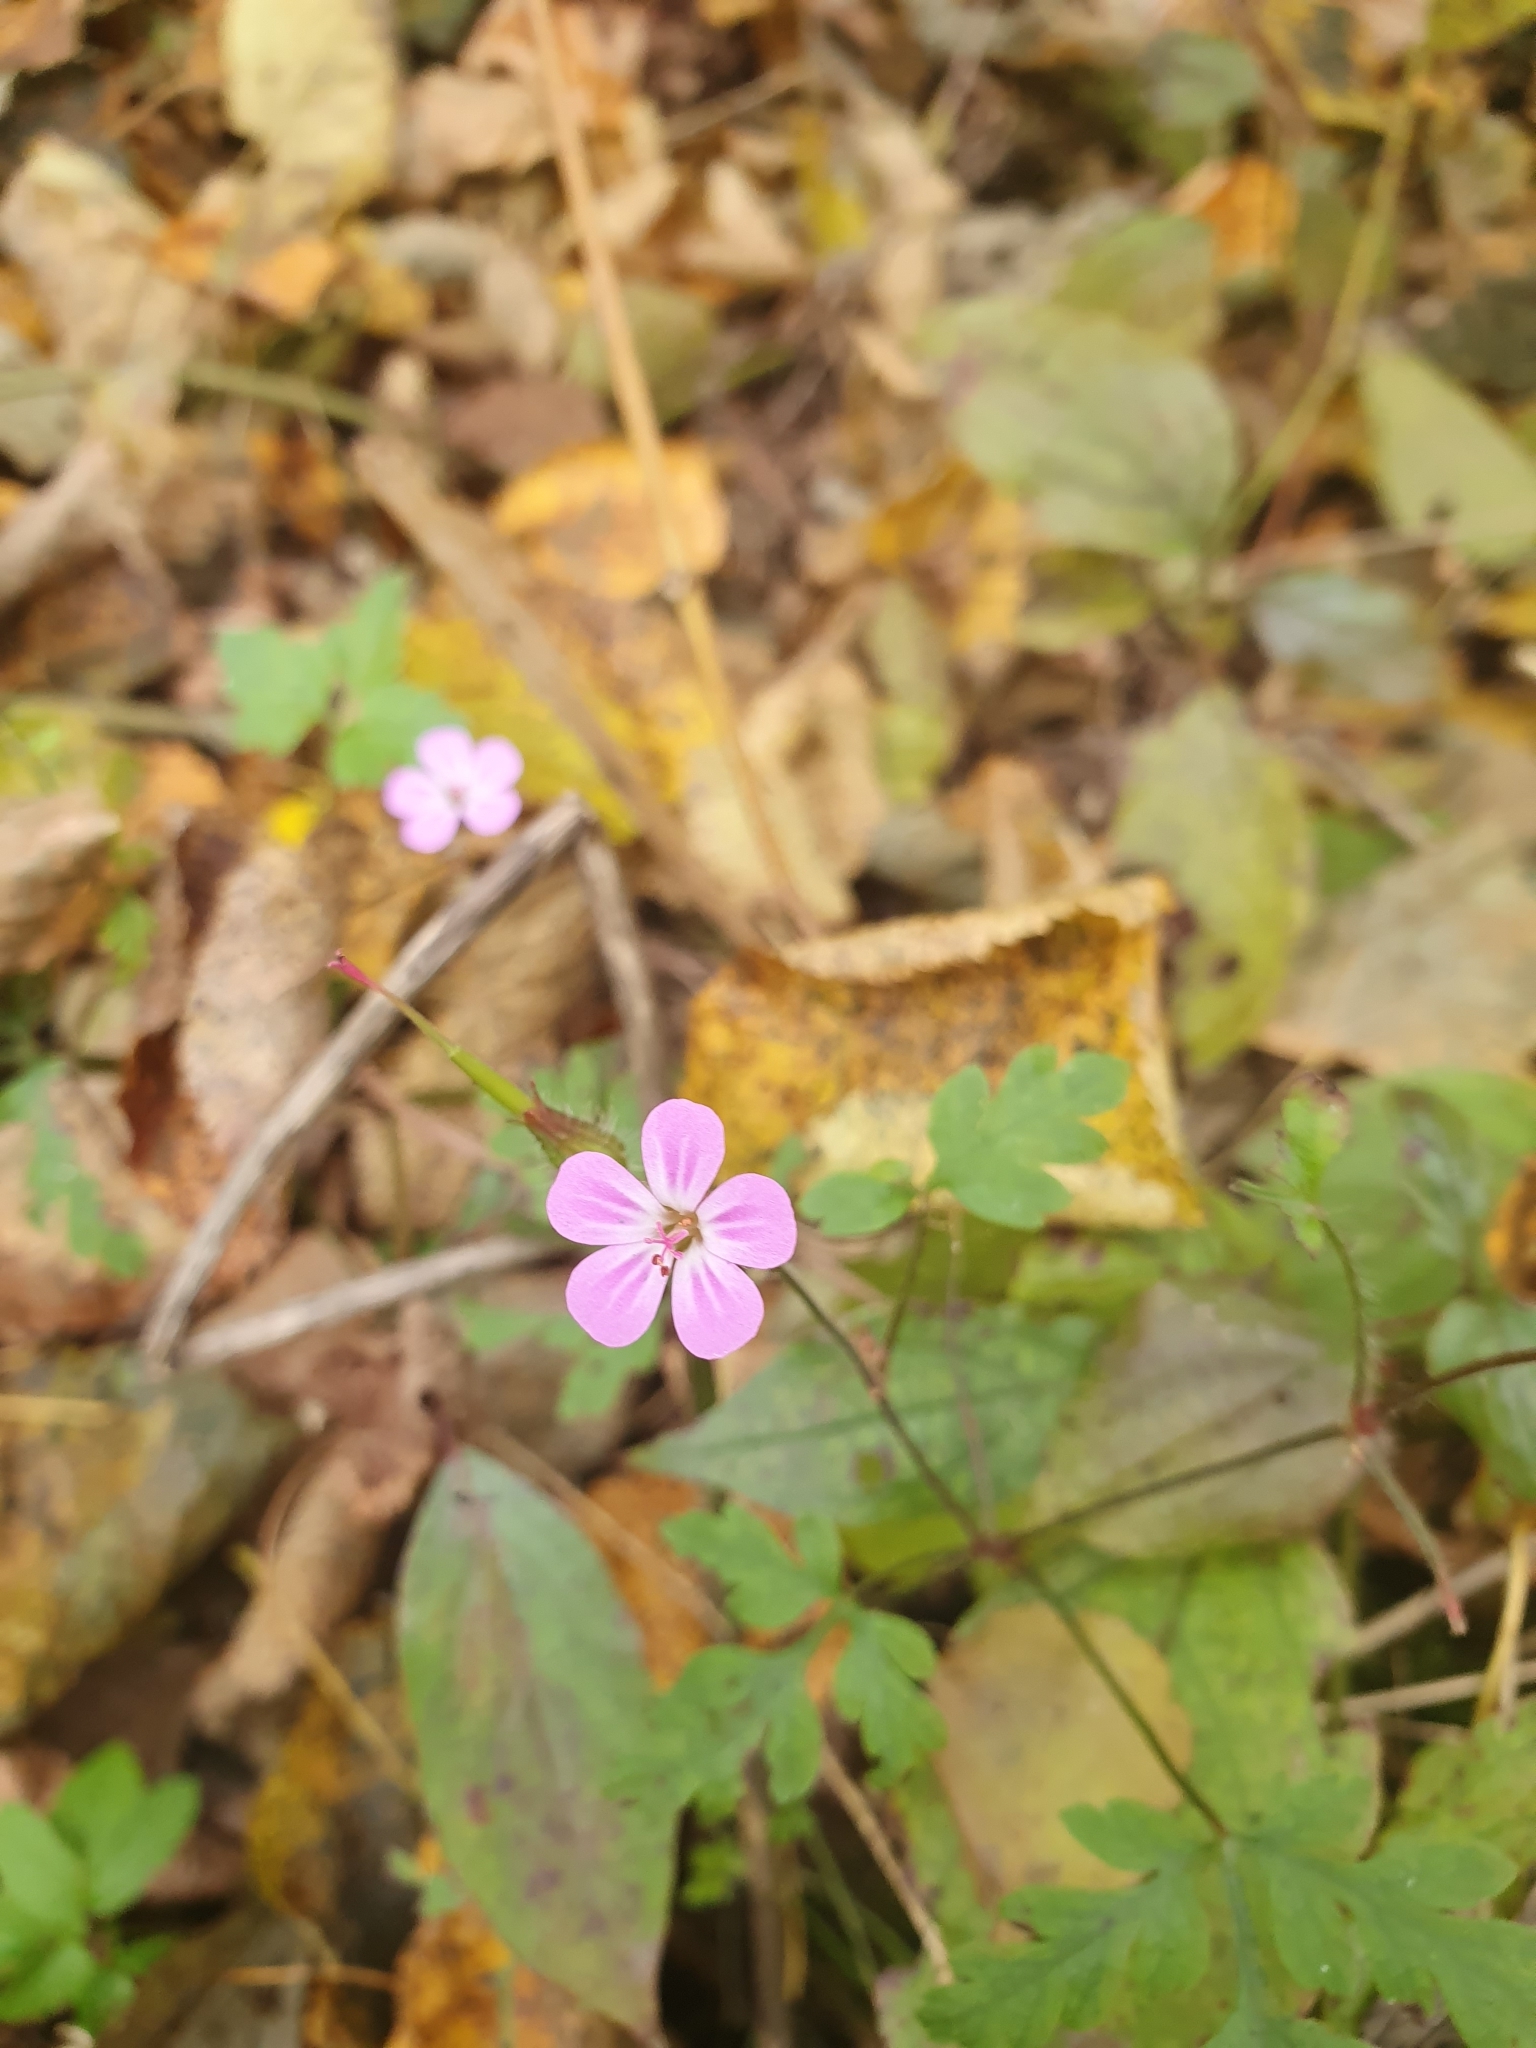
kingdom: Plantae
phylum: Tracheophyta
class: Magnoliopsida
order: Geraniales
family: Geraniaceae
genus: Geranium
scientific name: Geranium robertianum
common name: Herb-robert
